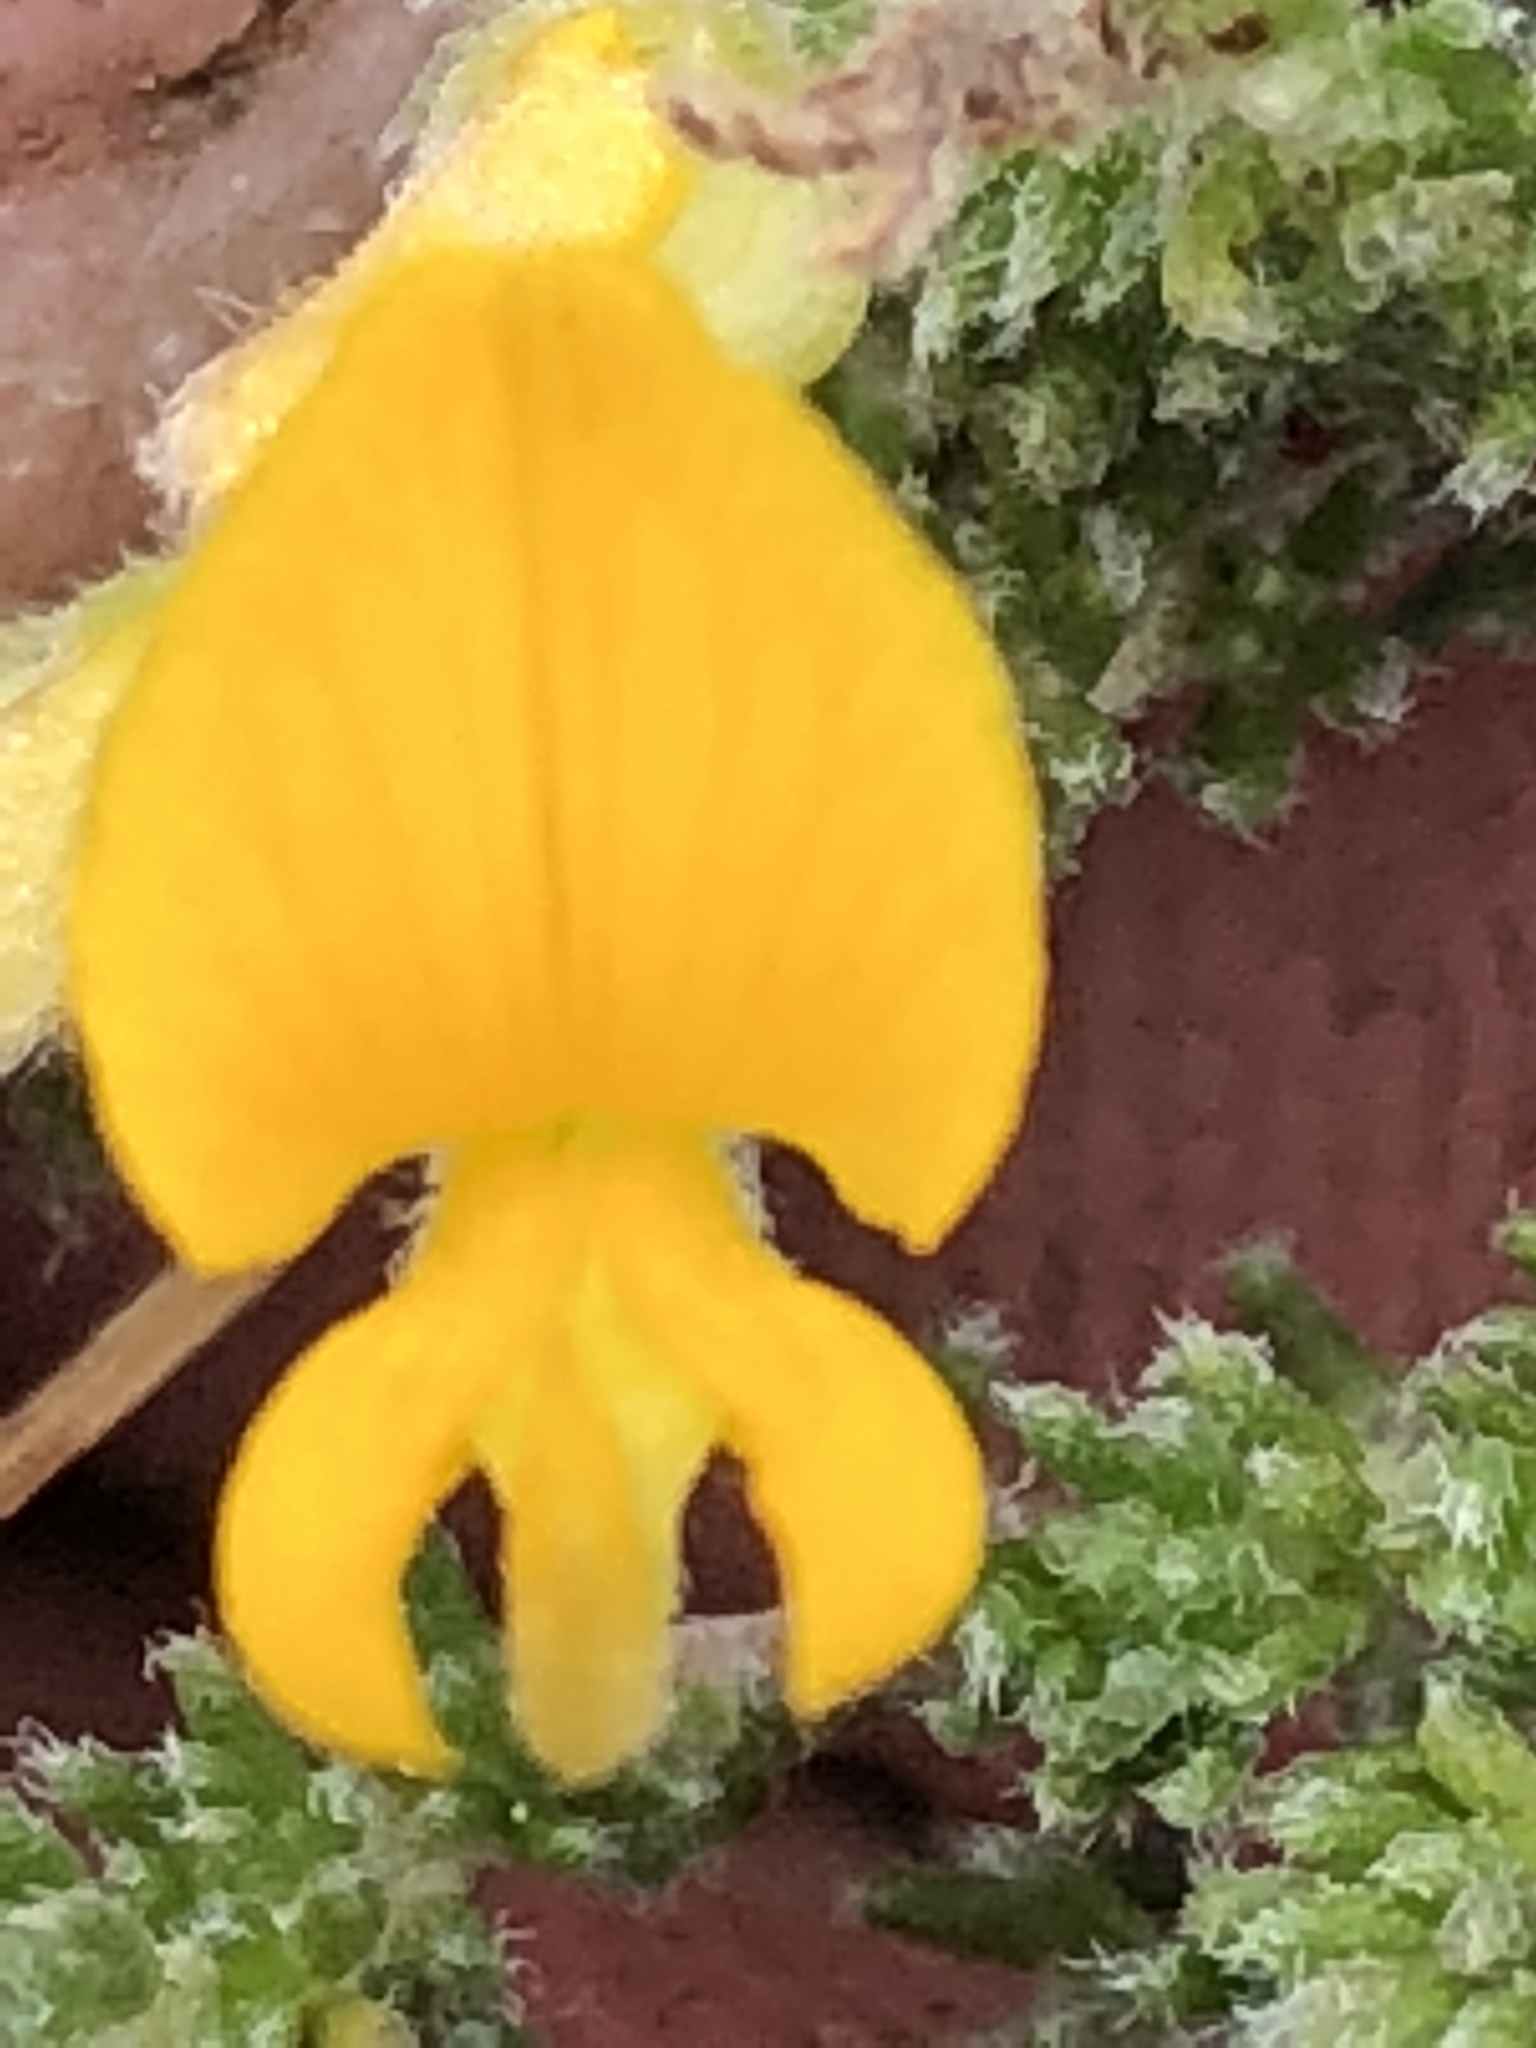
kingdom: Plantae
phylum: Tracheophyta
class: Magnoliopsida
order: Fabales
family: Fabaceae
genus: Aspalathus
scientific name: Aspalathus rubens
